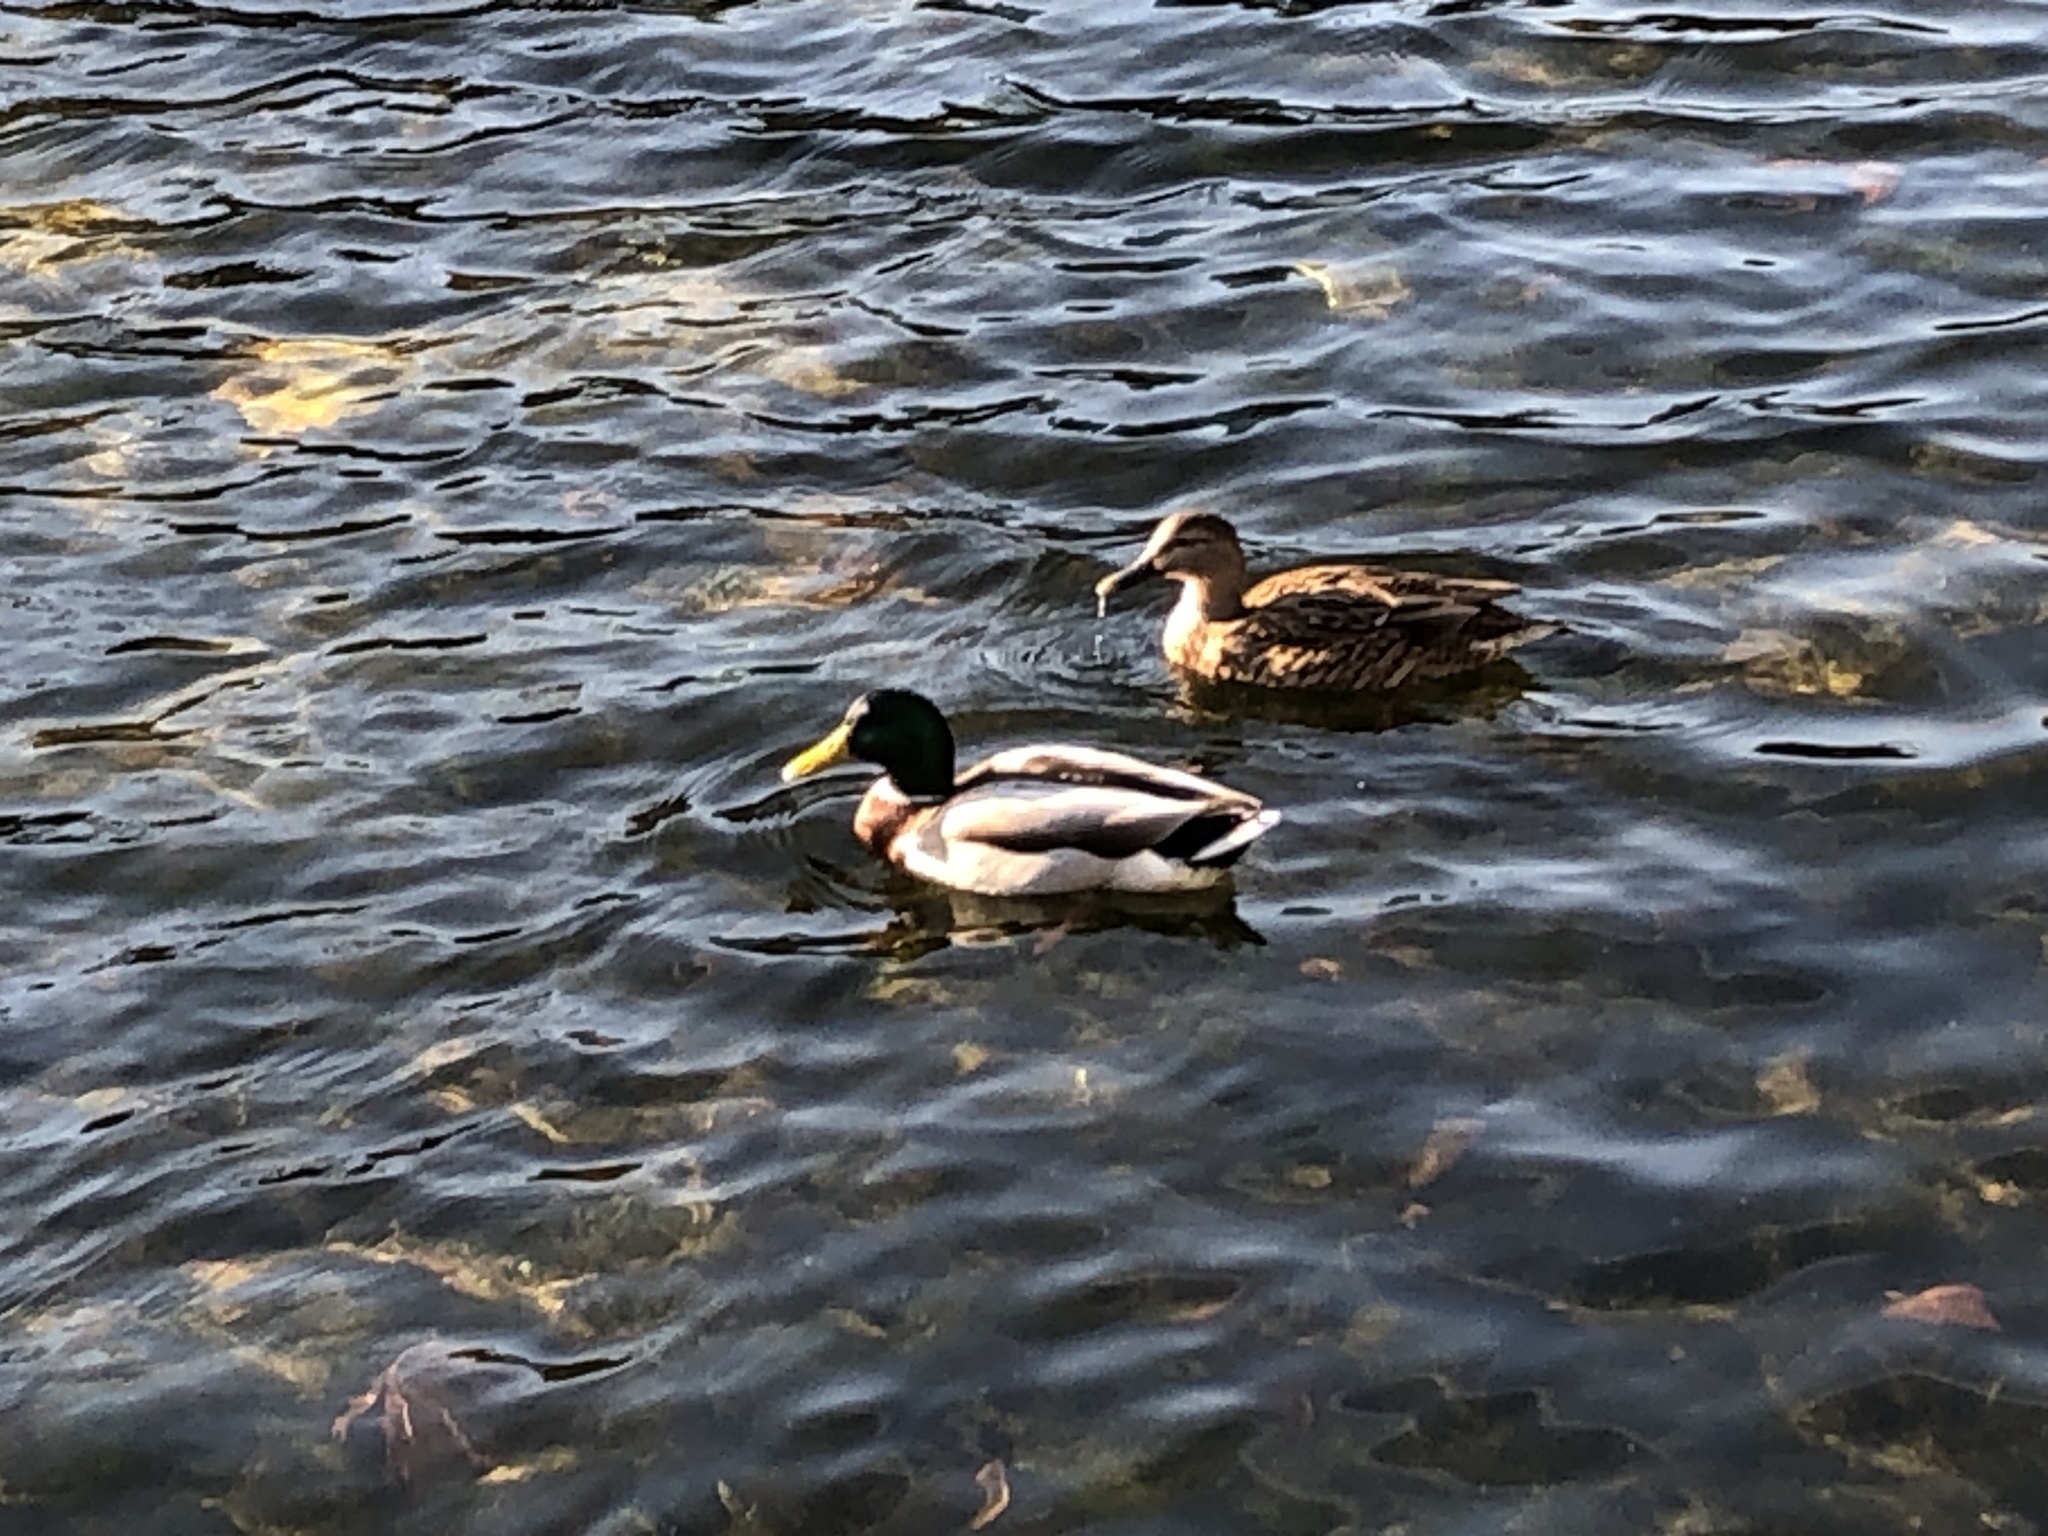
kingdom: Animalia
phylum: Chordata
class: Aves
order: Anseriformes
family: Anatidae
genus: Anas
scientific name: Anas platyrhynchos
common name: Mallard
